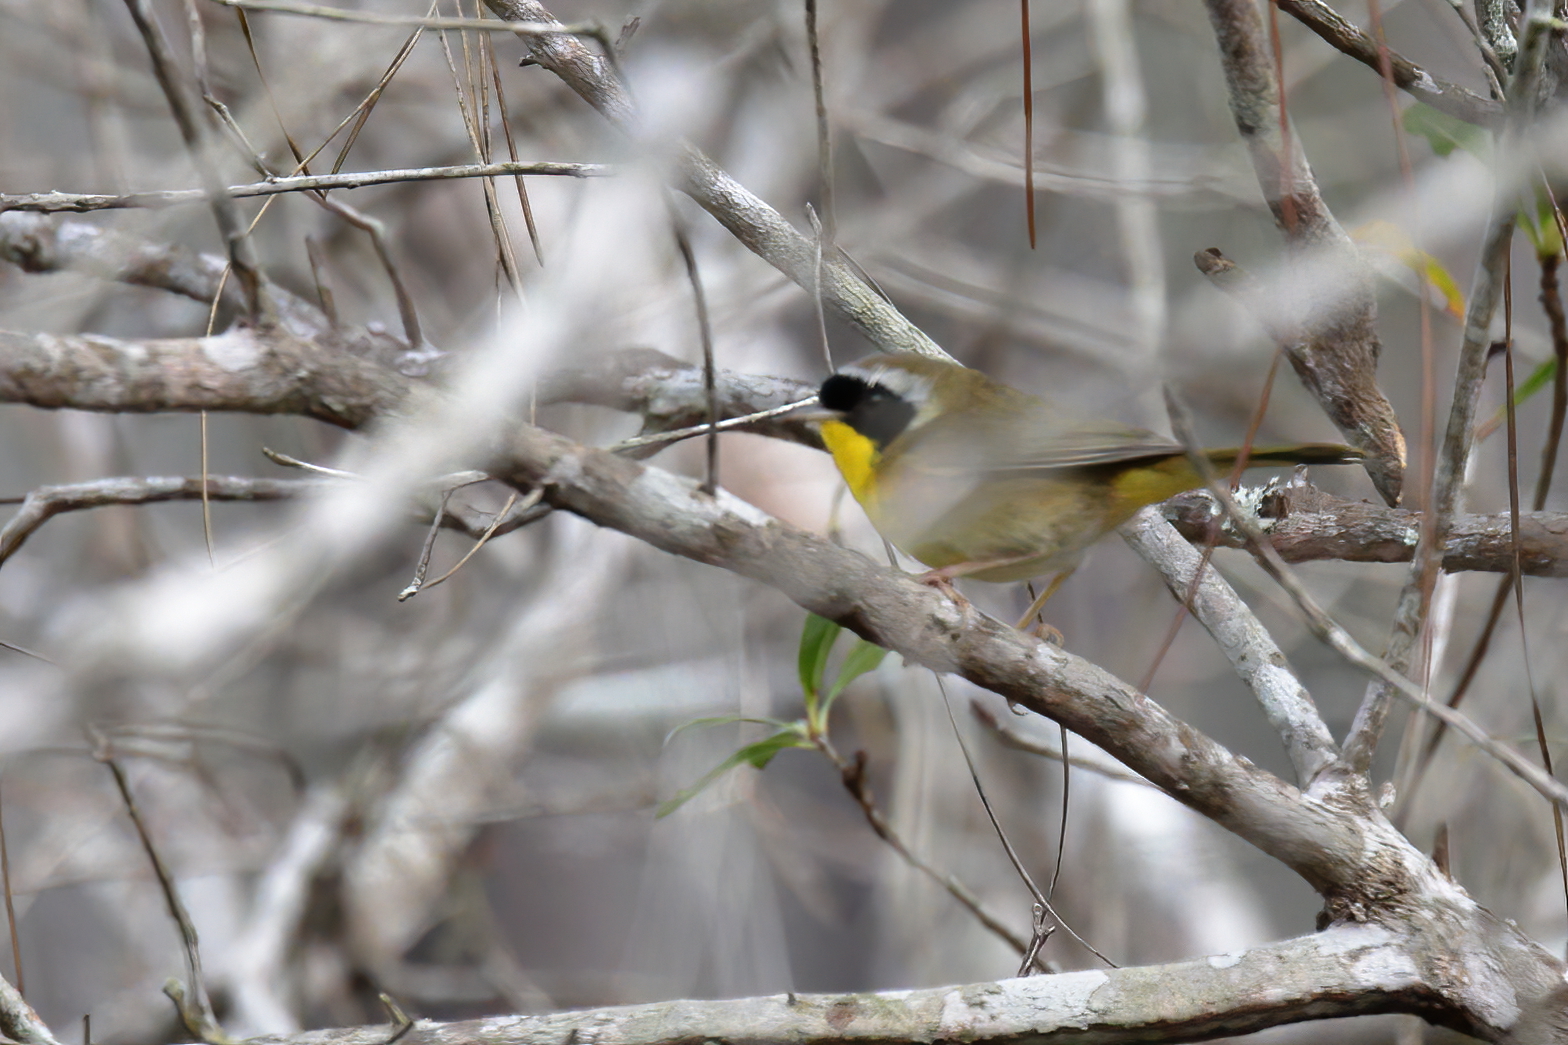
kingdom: Animalia
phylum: Chordata
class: Aves
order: Passeriformes
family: Parulidae
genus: Geothlypis
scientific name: Geothlypis trichas
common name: Common yellowthroat
